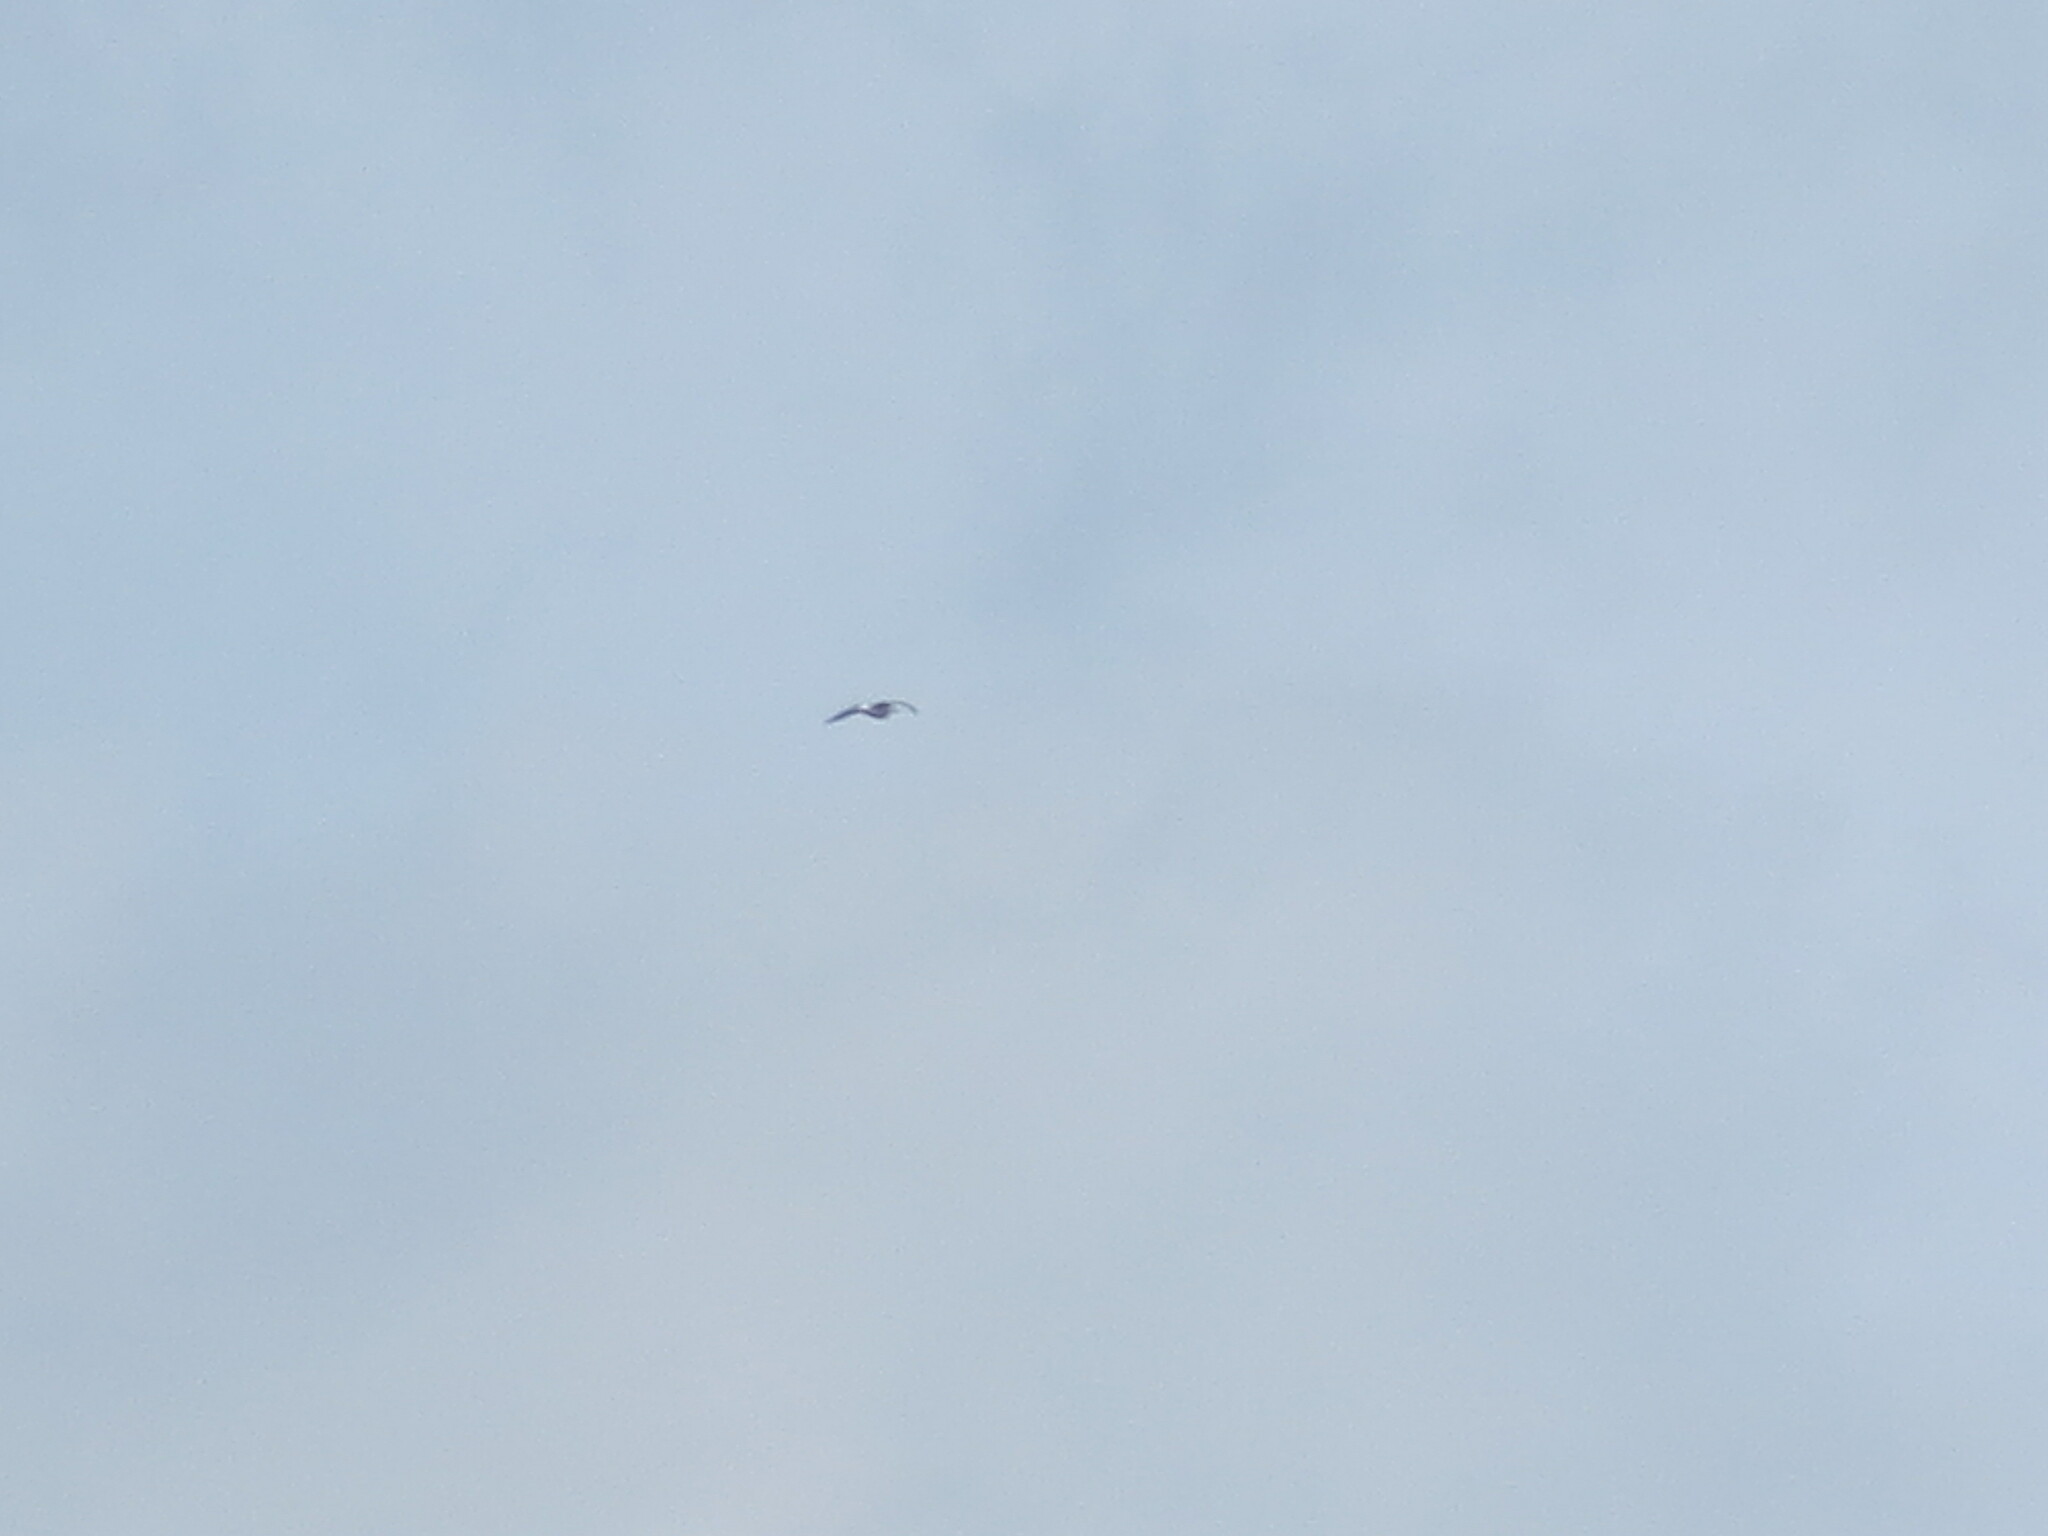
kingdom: Animalia
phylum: Chordata
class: Aves
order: Charadriiformes
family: Laridae
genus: Larus
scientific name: Larus delawarensis
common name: Ring-billed gull
